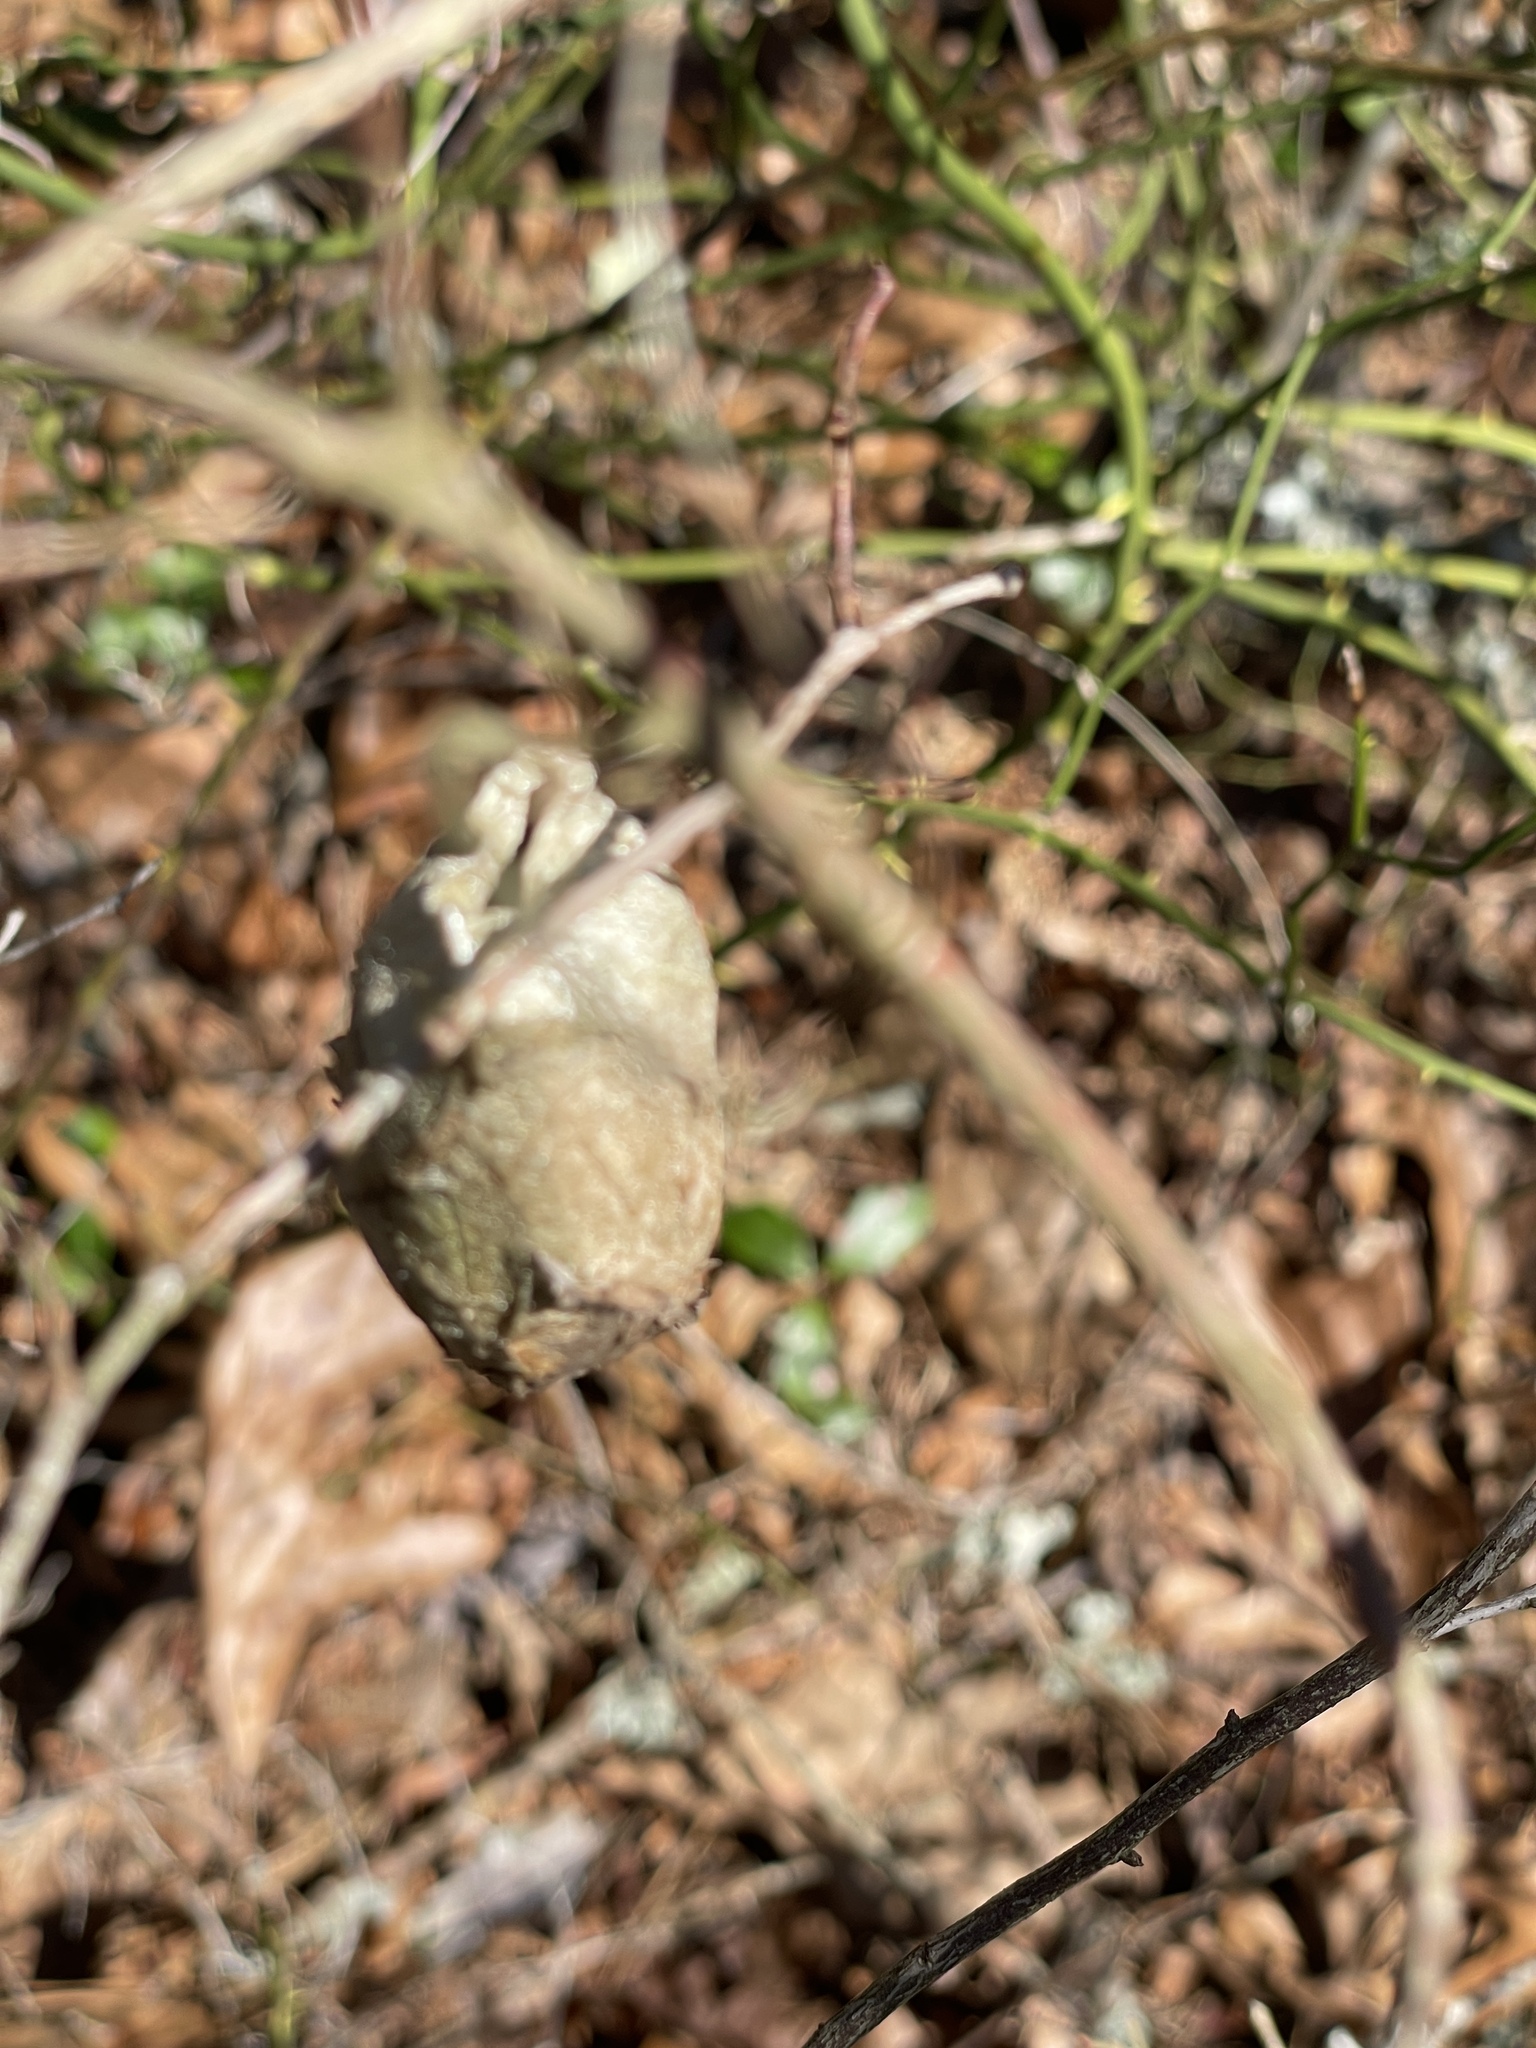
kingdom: Animalia
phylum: Arthropoda
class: Insecta
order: Lepidoptera
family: Saturniidae
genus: Antheraea
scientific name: Antheraea polyphemus
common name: Polyphemus moth
